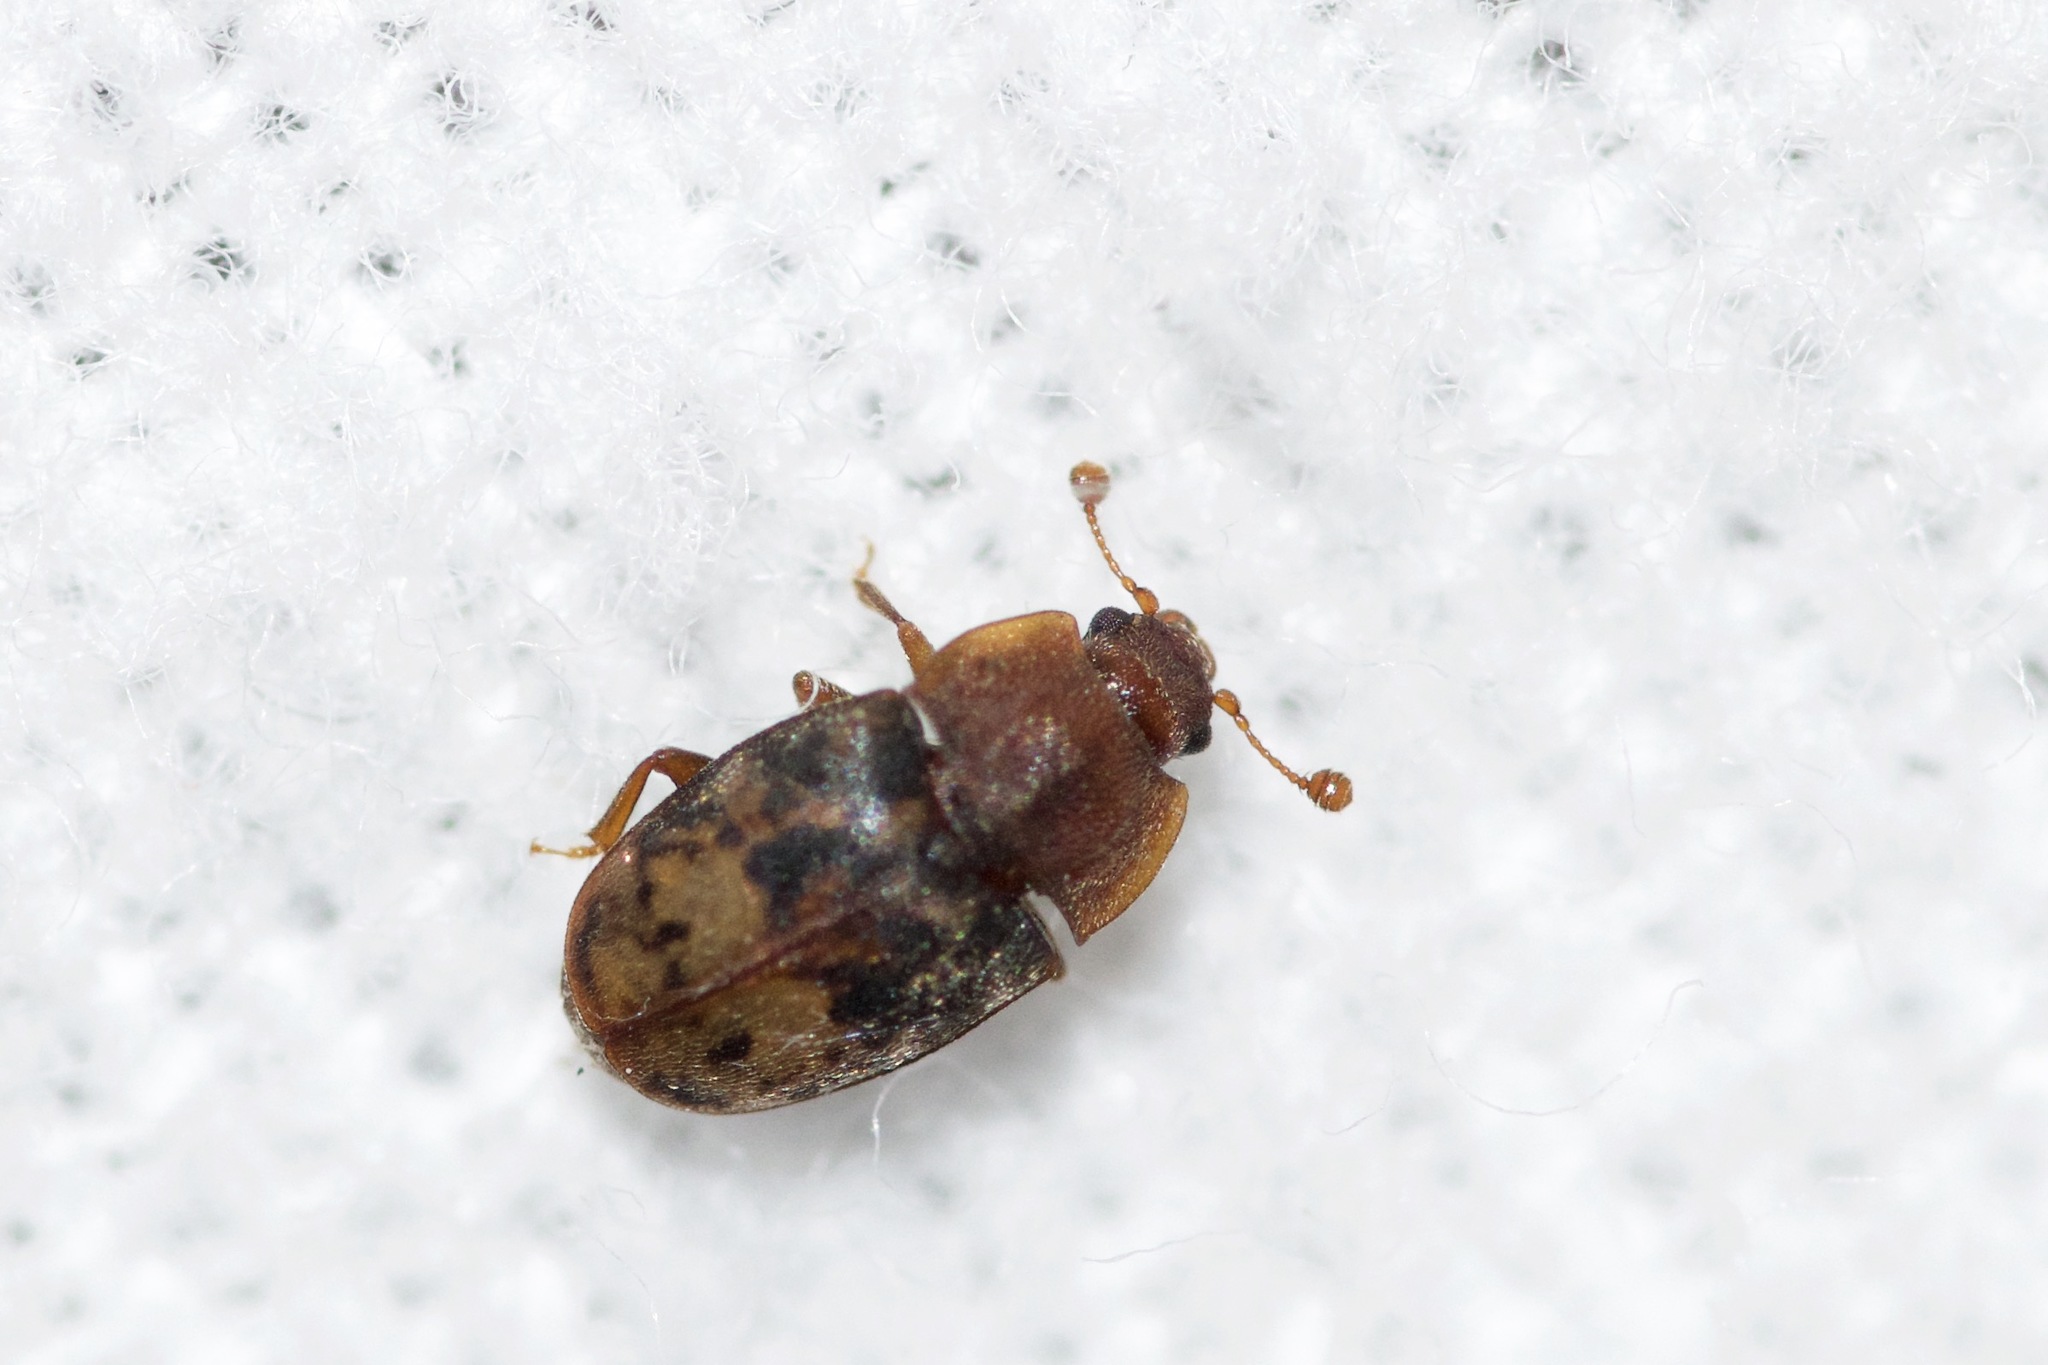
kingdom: Animalia
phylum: Arthropoda
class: Insecta
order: Coleoptera
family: Nitidulidae
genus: Omosita
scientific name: Omosita nearctica
